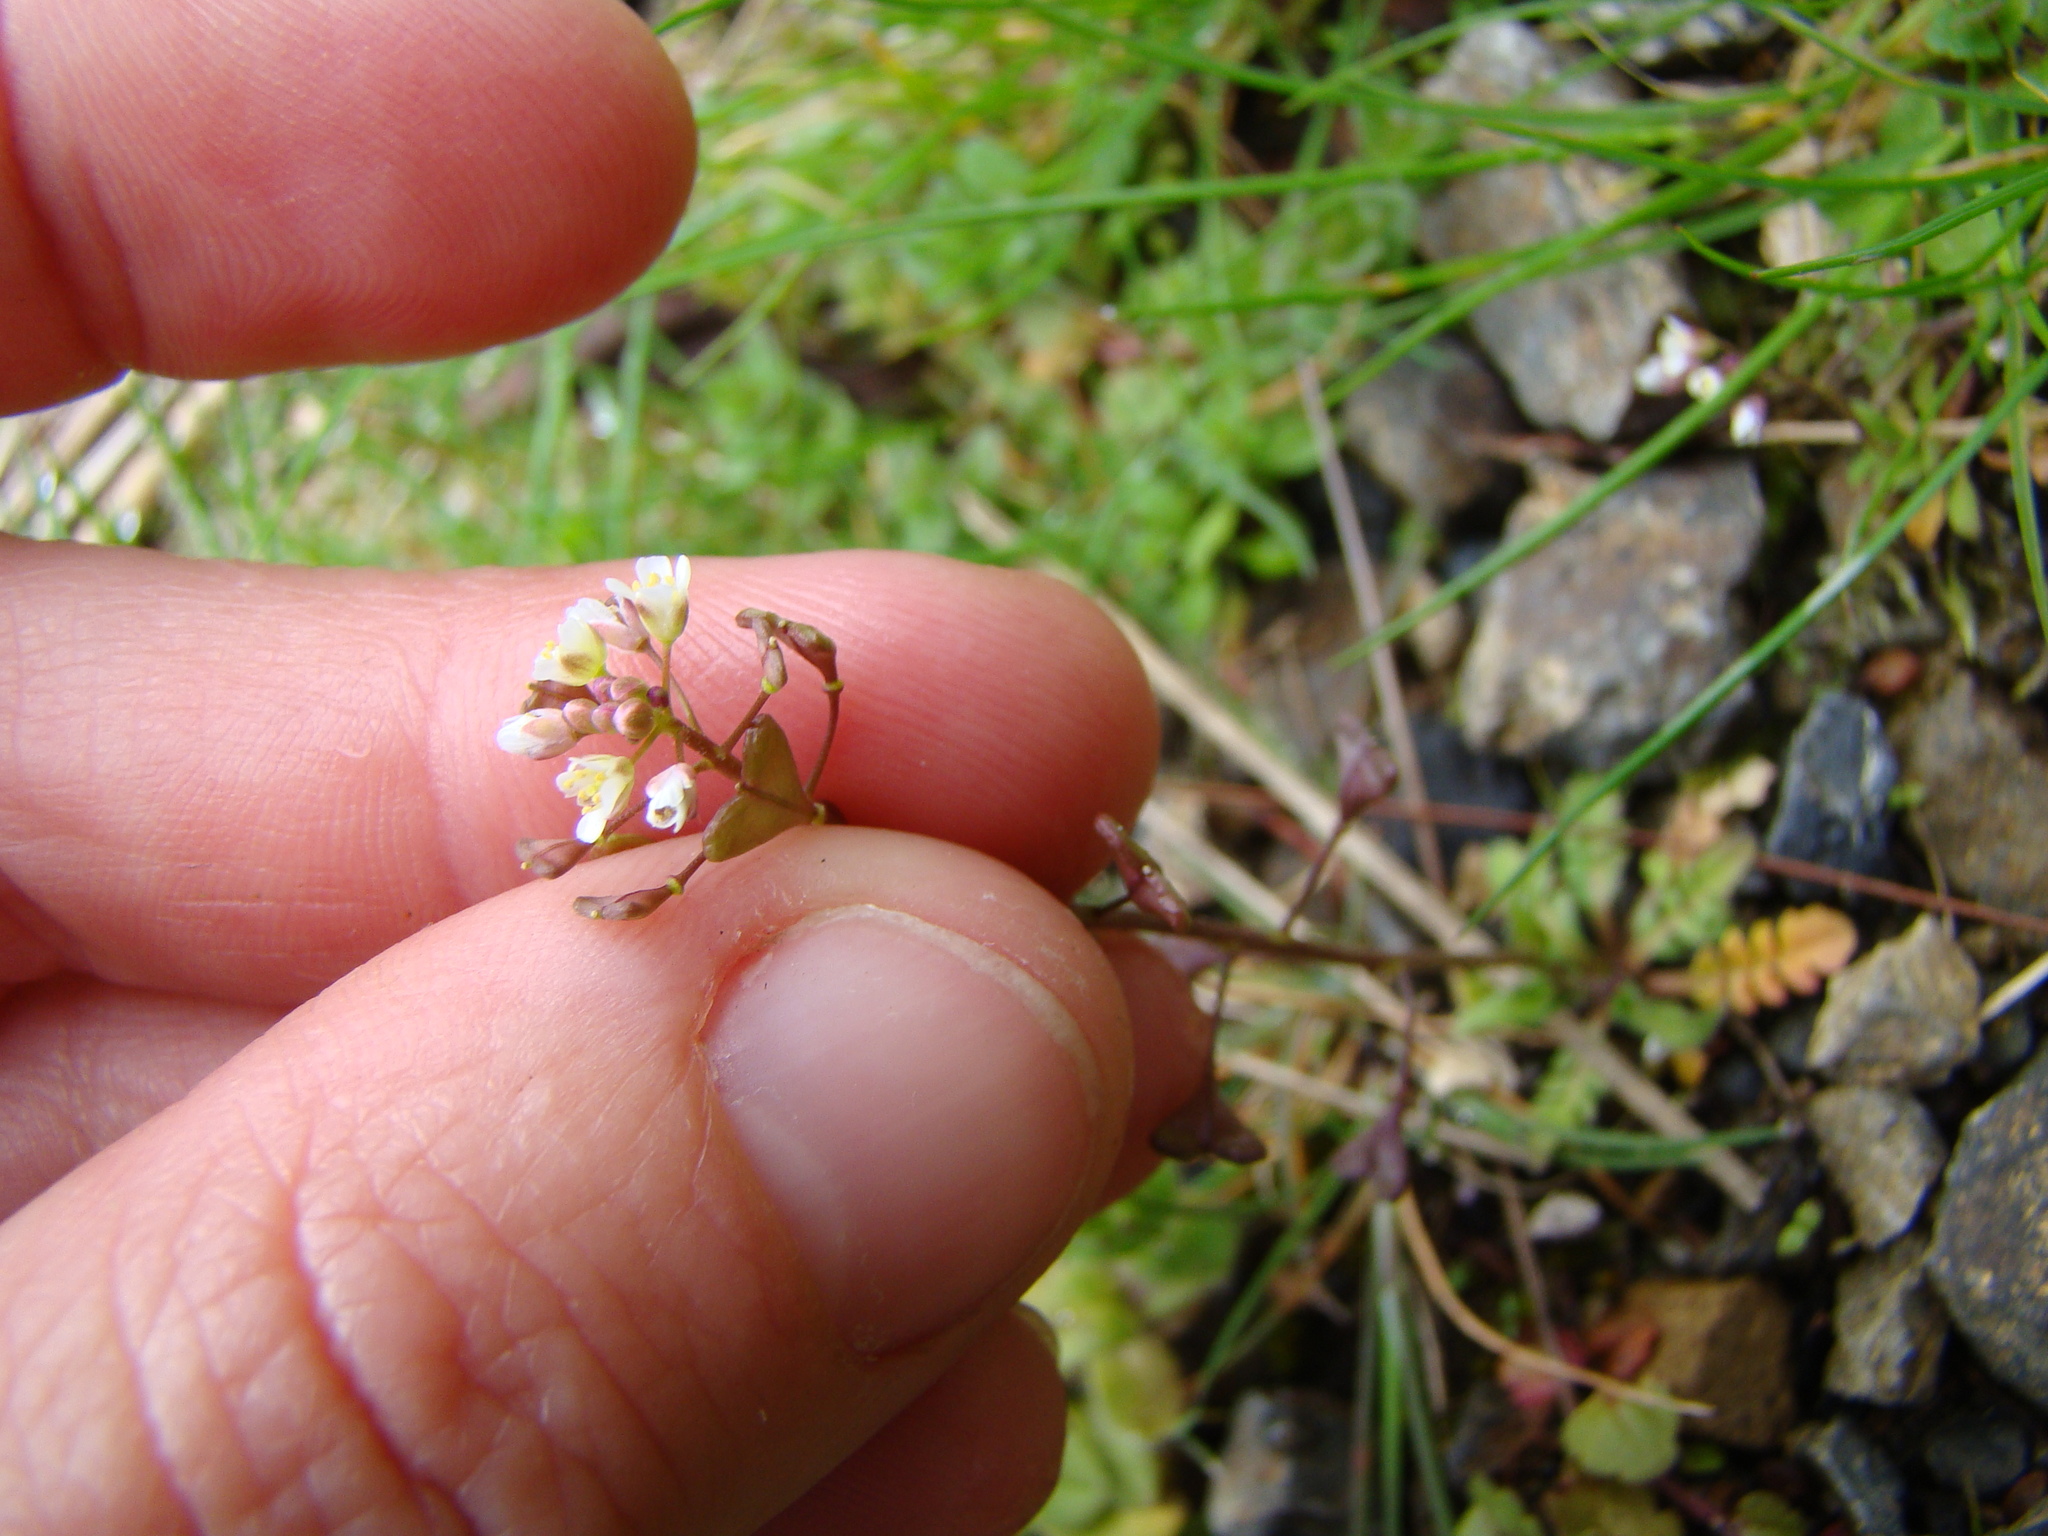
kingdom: Plantae
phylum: Tracheophyta
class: Magnoliopsida
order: Brassicales
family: Brassicaceae
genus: Capsella
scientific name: Capsella bursa-pastoris
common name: Shepherd's purse
